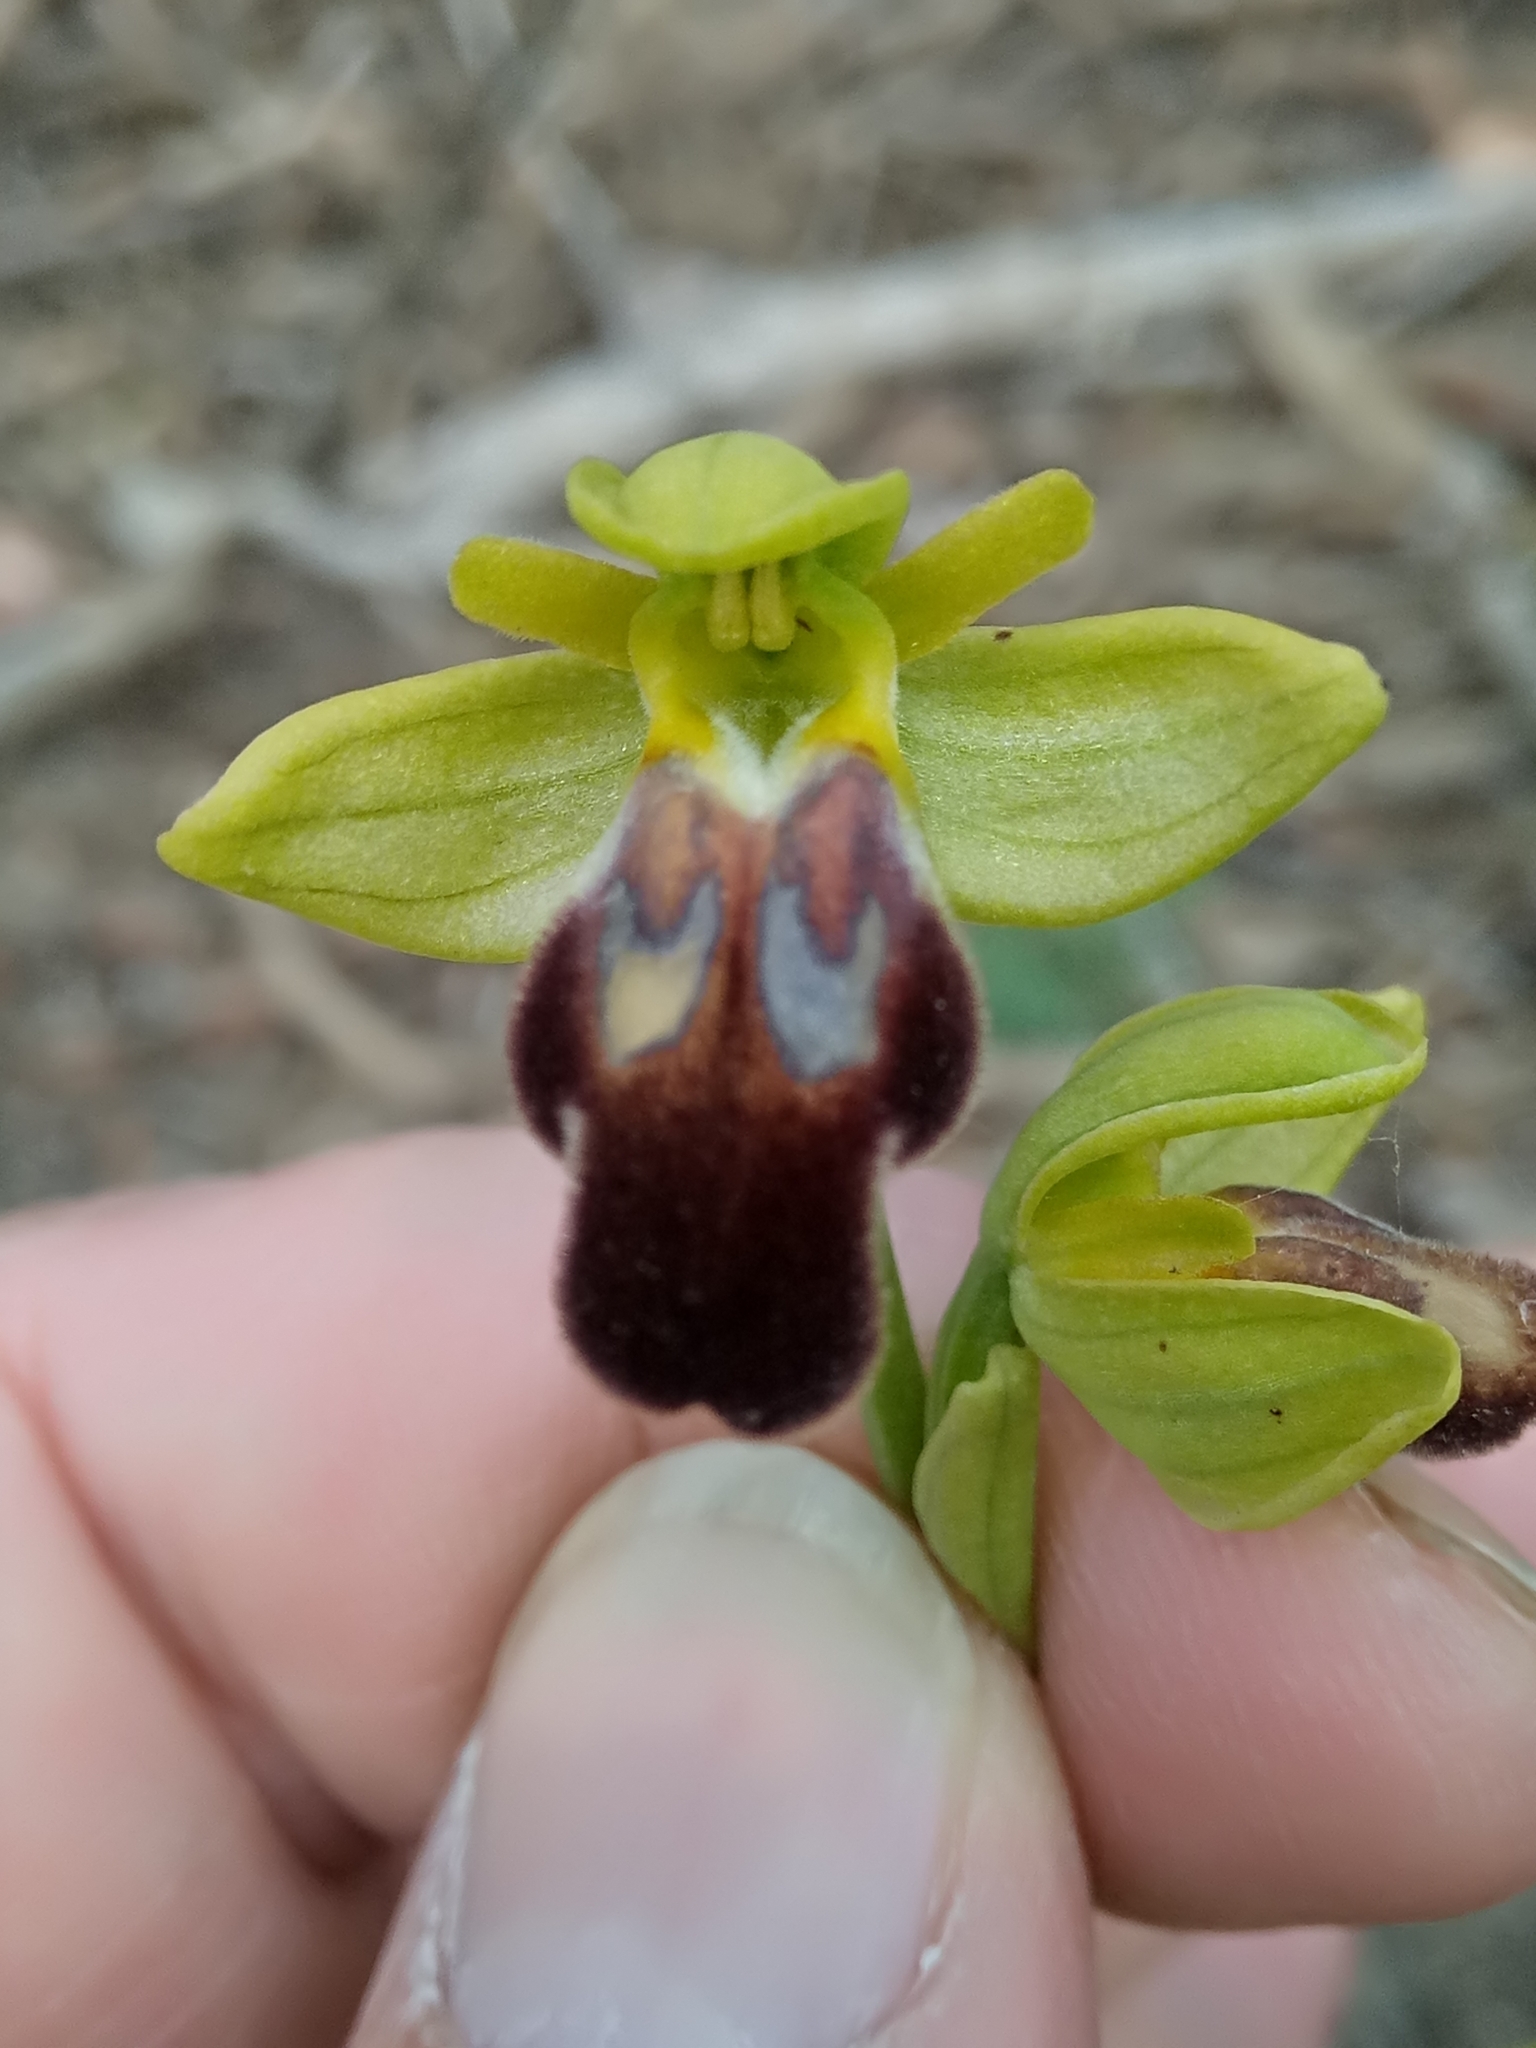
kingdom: Plantae
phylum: Tracheophyta
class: Liliopsida
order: Asparagales
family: Orchidaceae
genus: Ophrys
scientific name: Ophrys fusca
